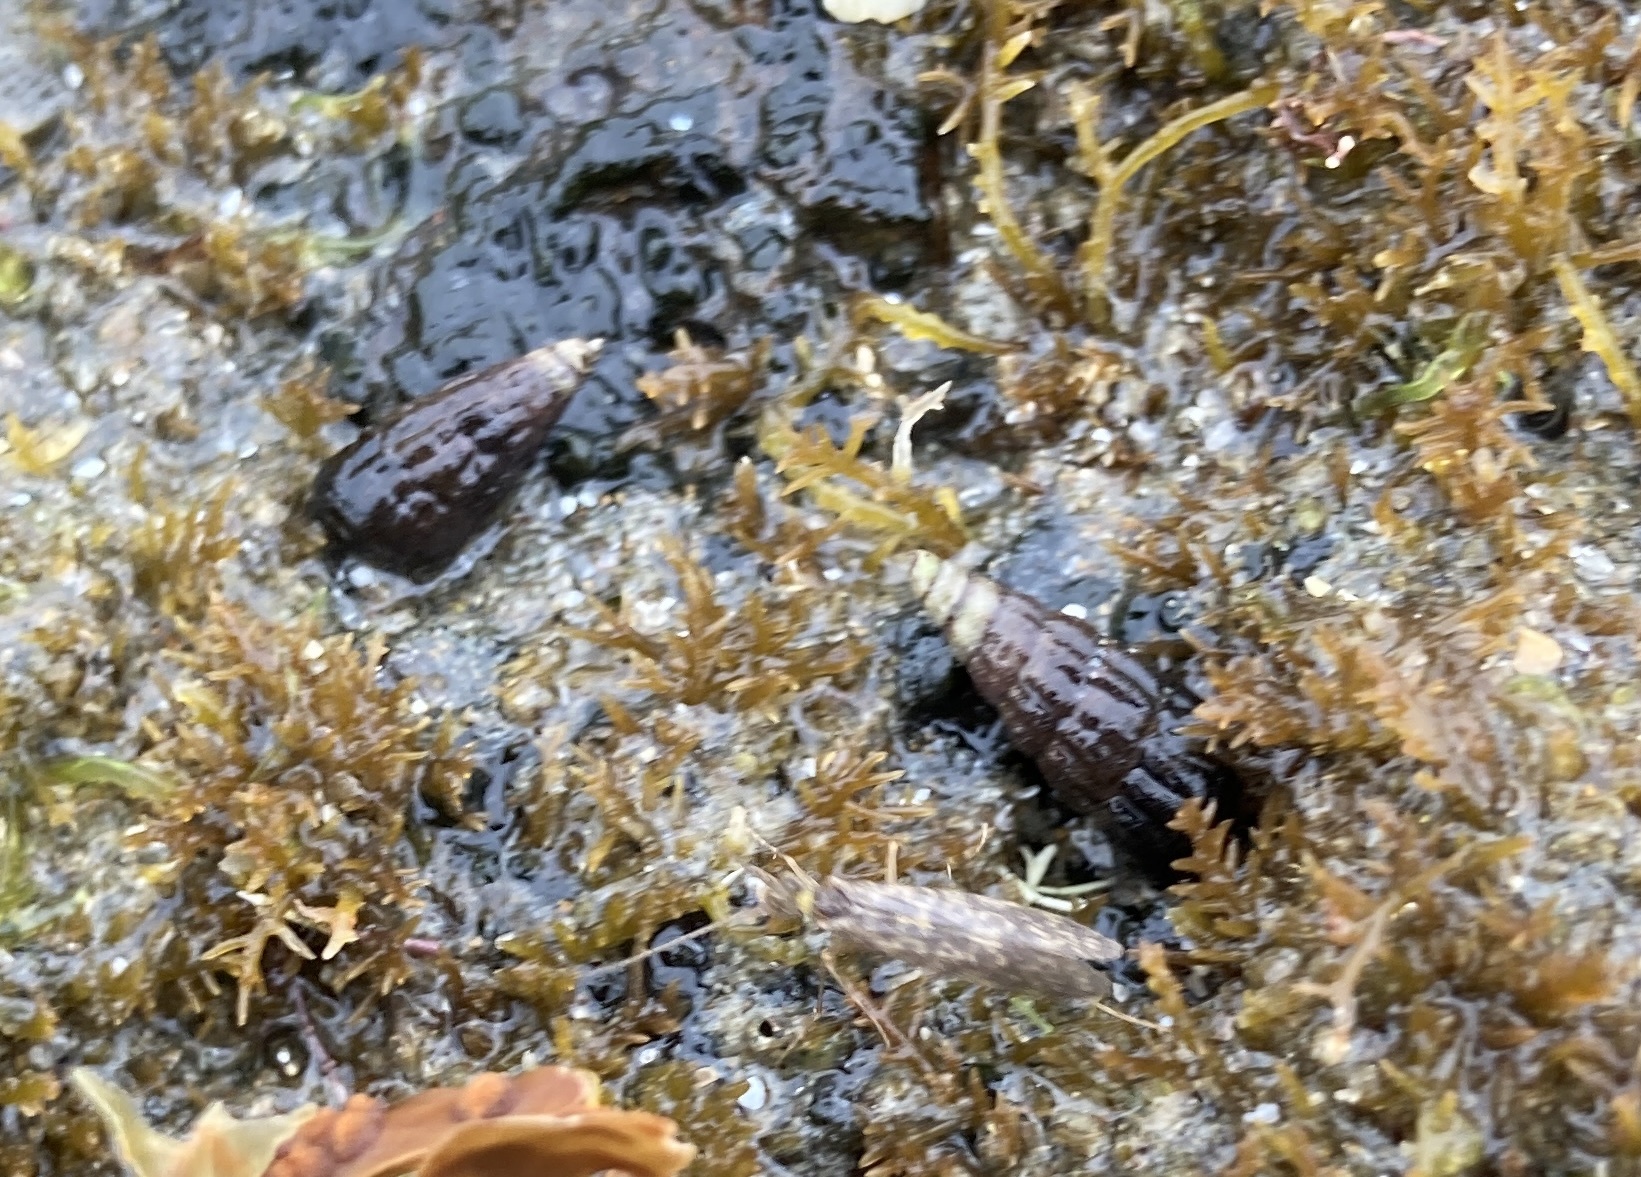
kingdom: Animalia
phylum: Mollusca
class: Gastropoda
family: Batillariidae
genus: Zeacumantus
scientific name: Zeacumantus subcarinatus
